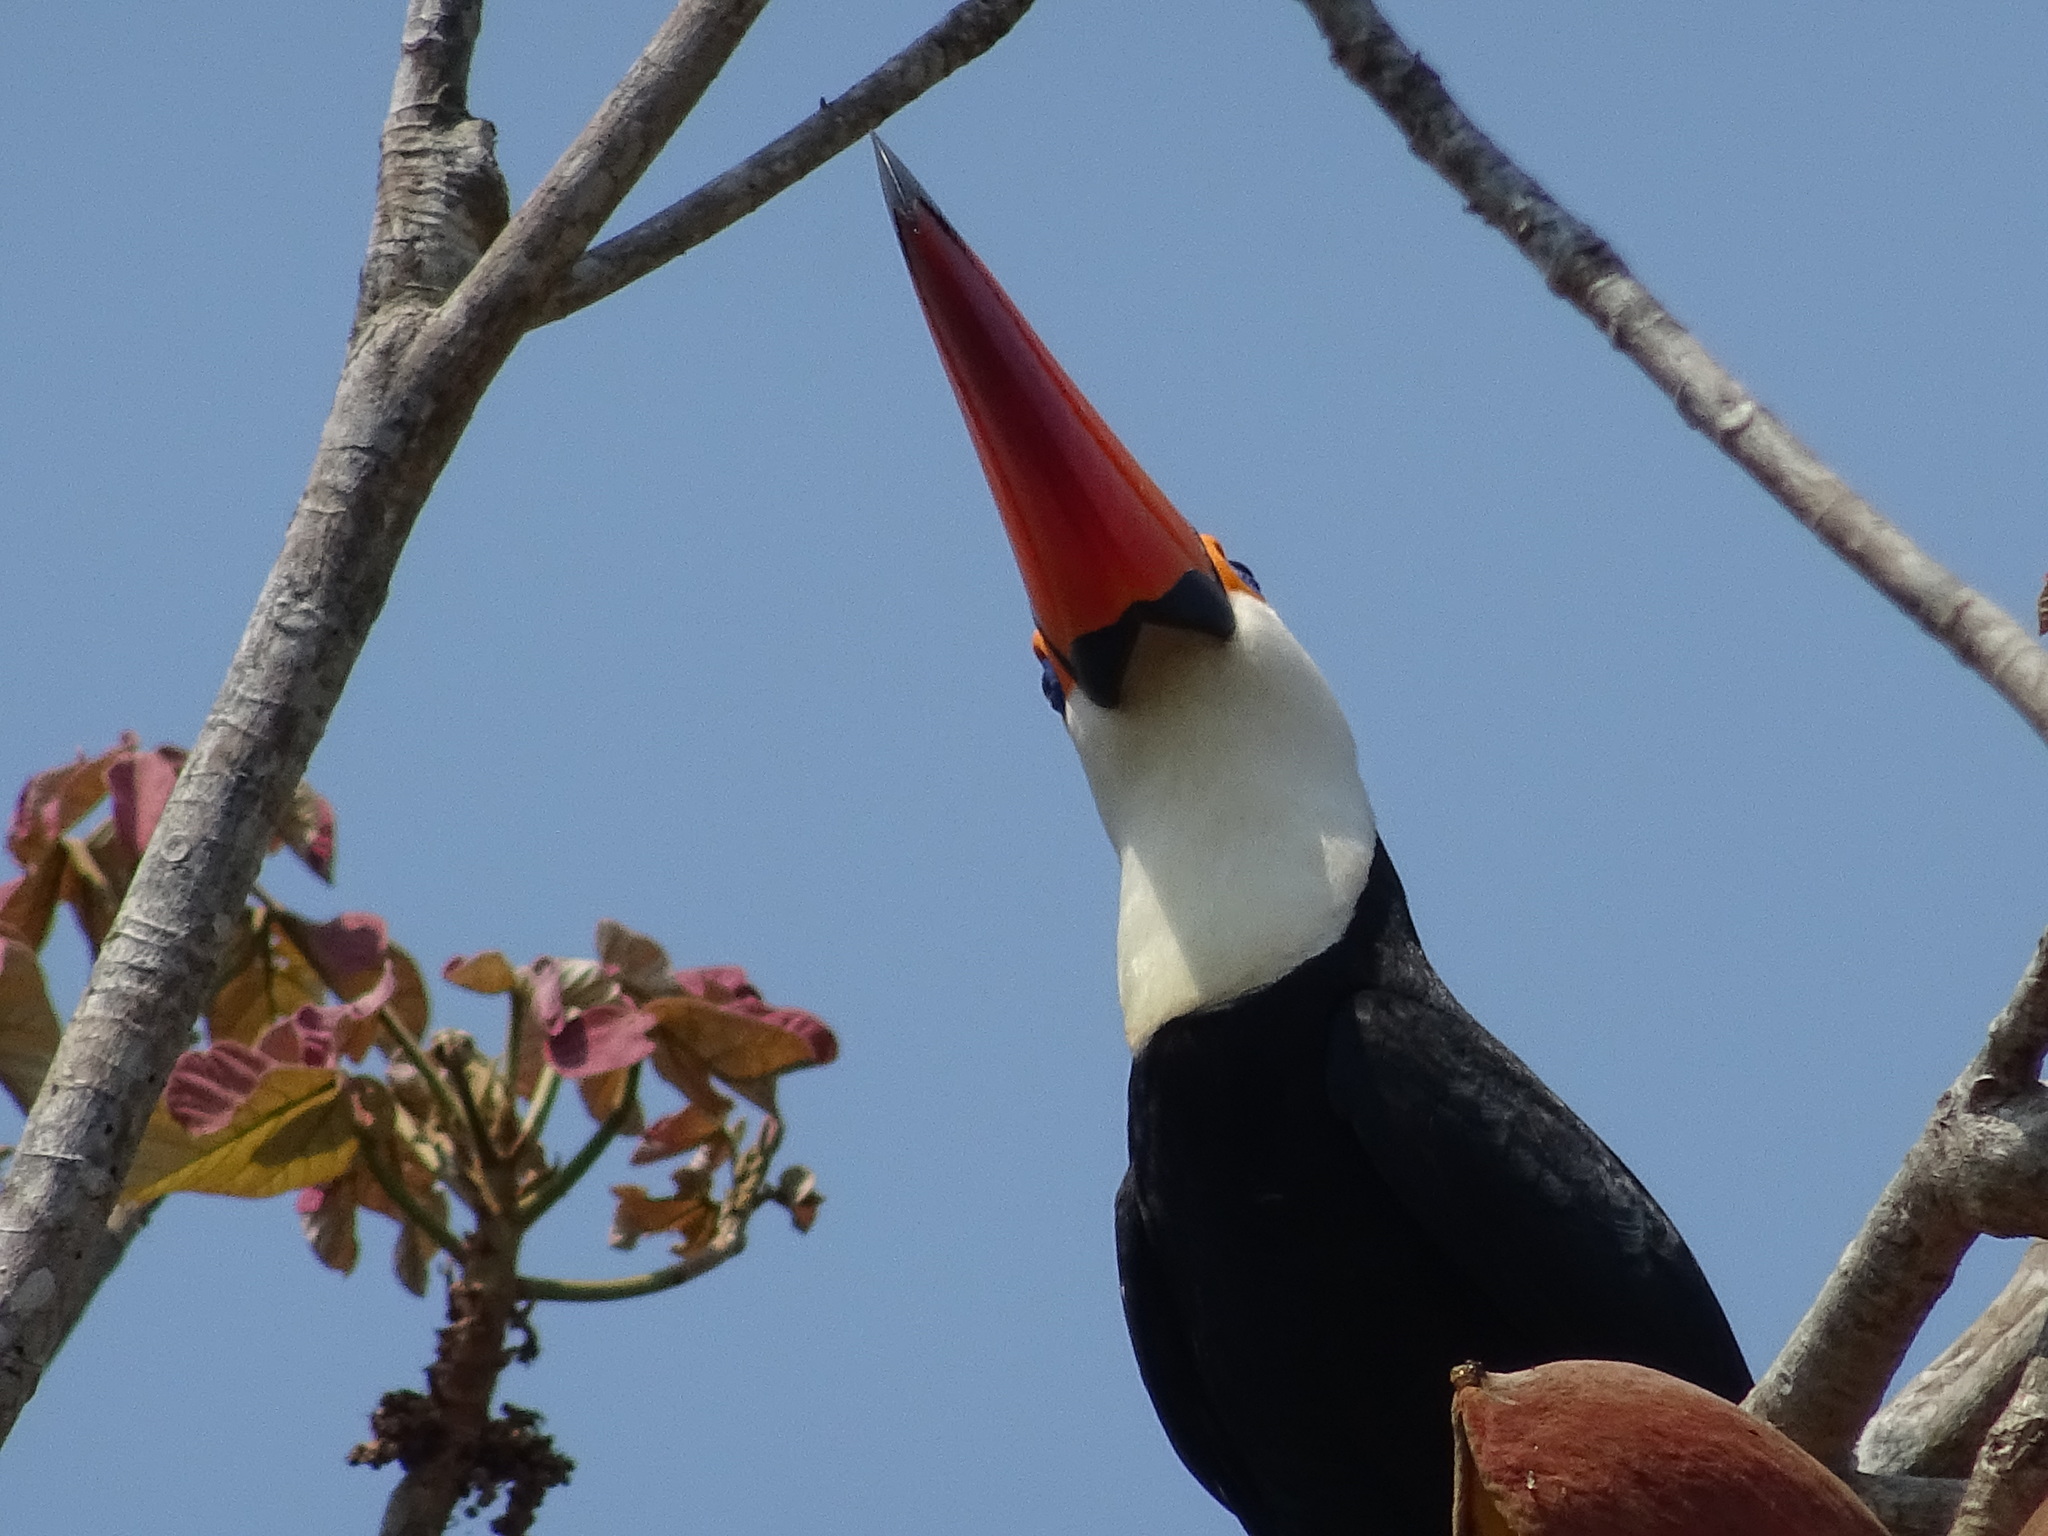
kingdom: Animalia
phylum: Chordata
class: Aves
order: Piciformes
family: Ramphastidae
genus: Ramphastos
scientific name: Ramphastos toco
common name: Toco toucan
